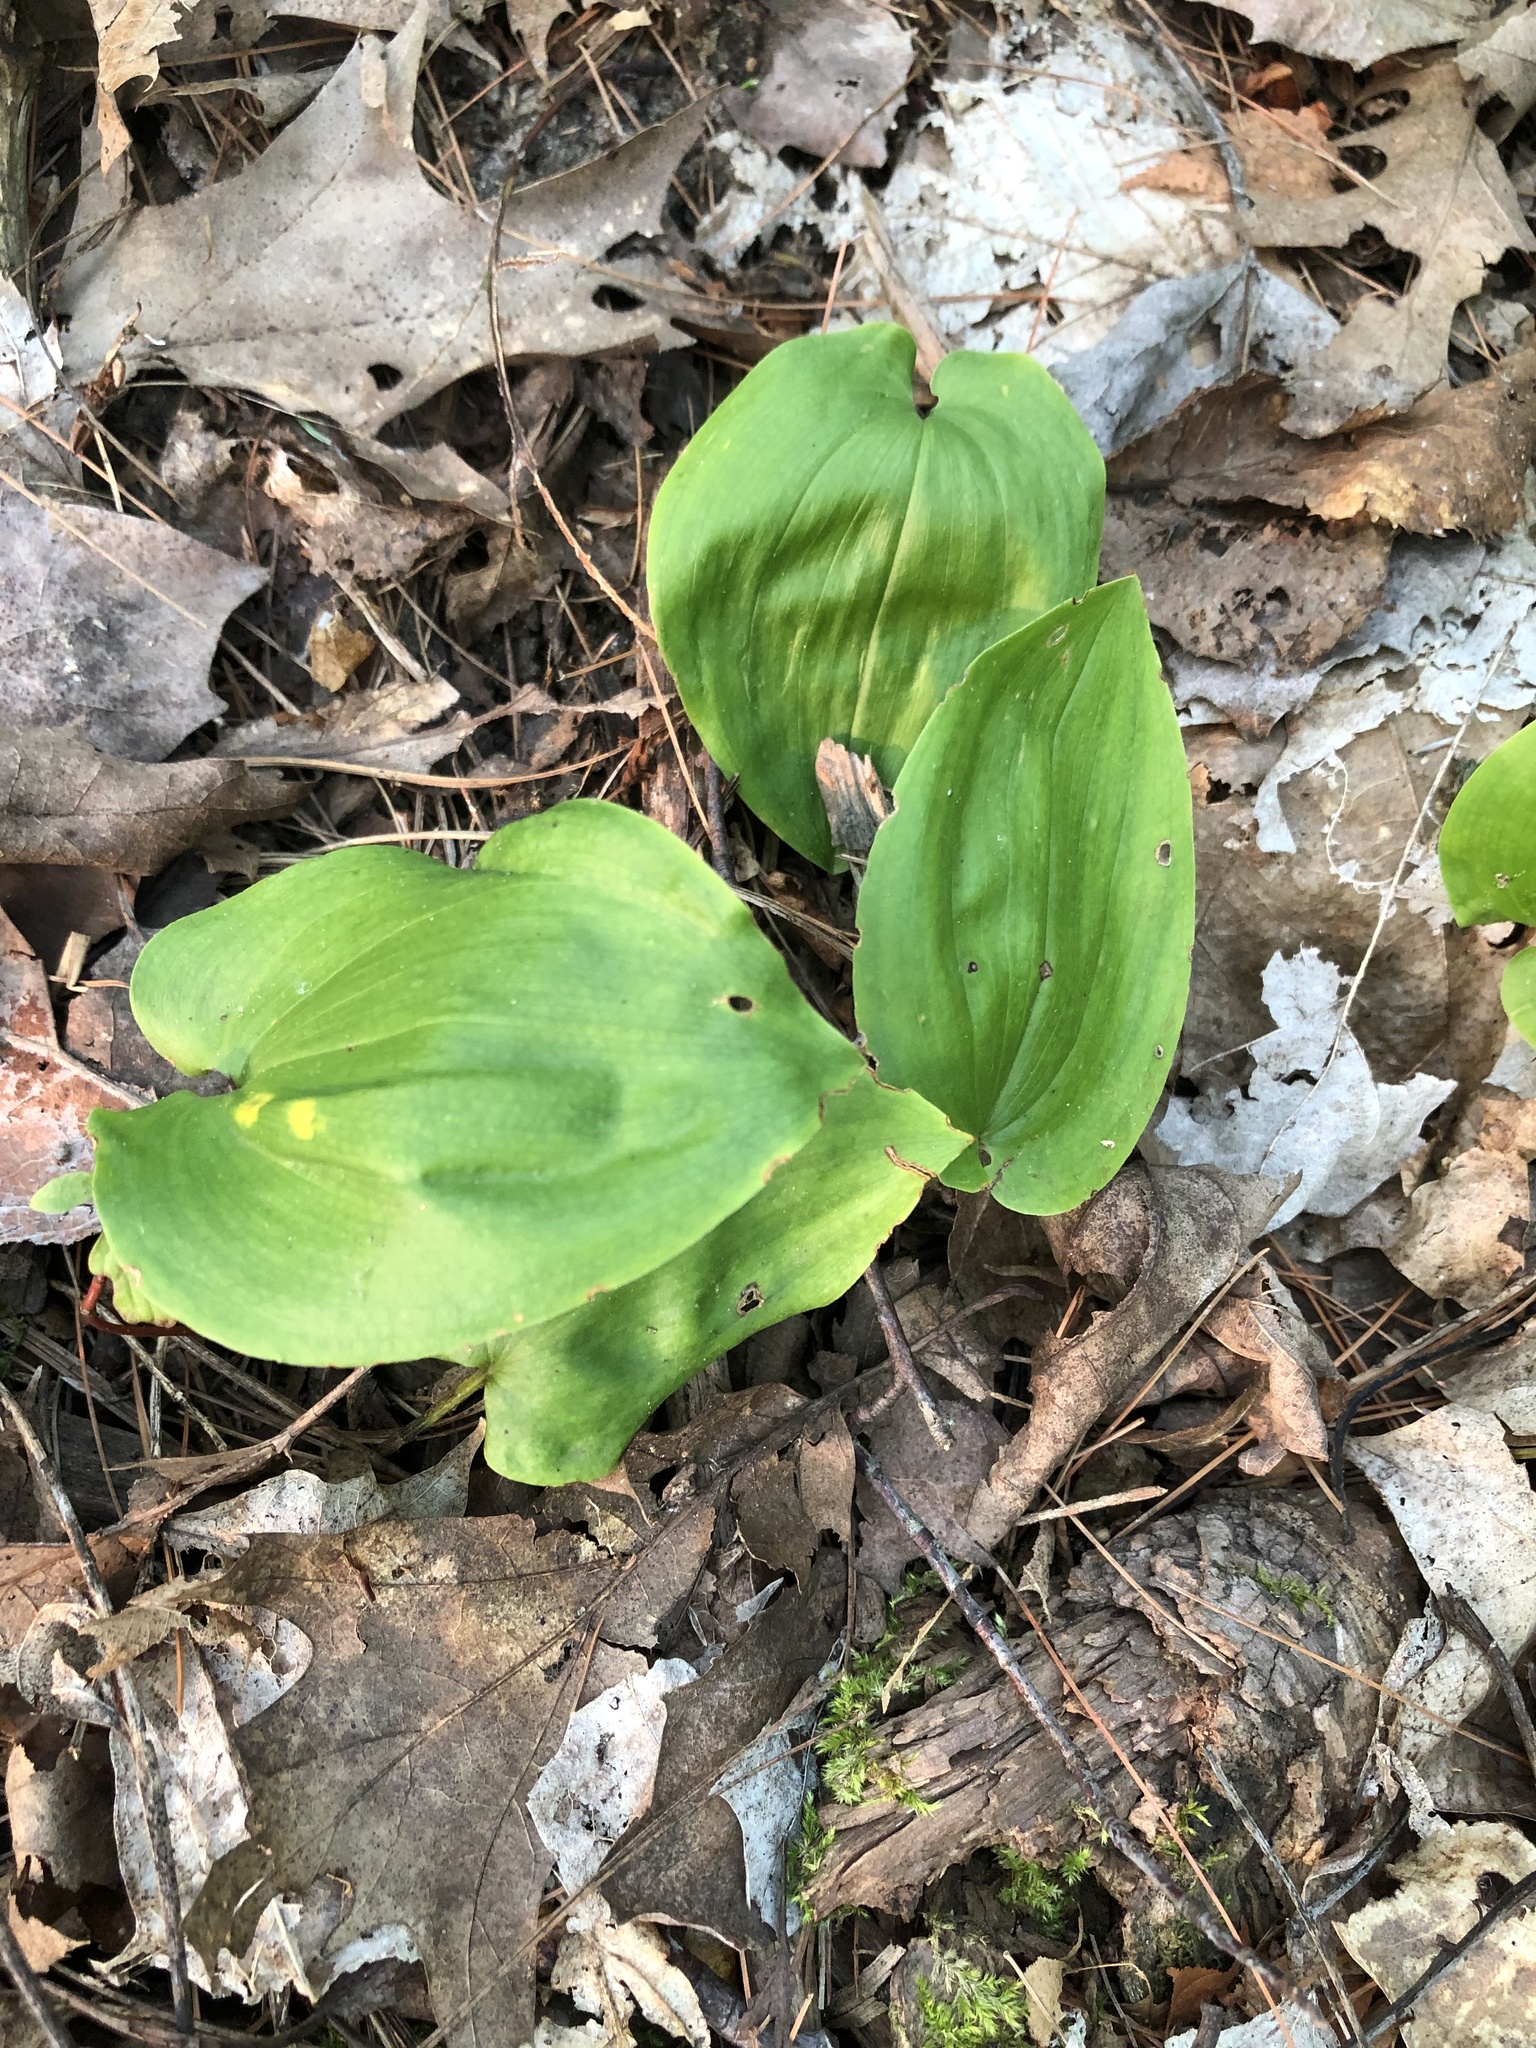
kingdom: Plantae
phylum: Tracheophyta
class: Liliopsida
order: Asparagales
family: Asparagaceae
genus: Maianthemum
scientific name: Maianthemum canadense
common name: False lily-of-the-valley
